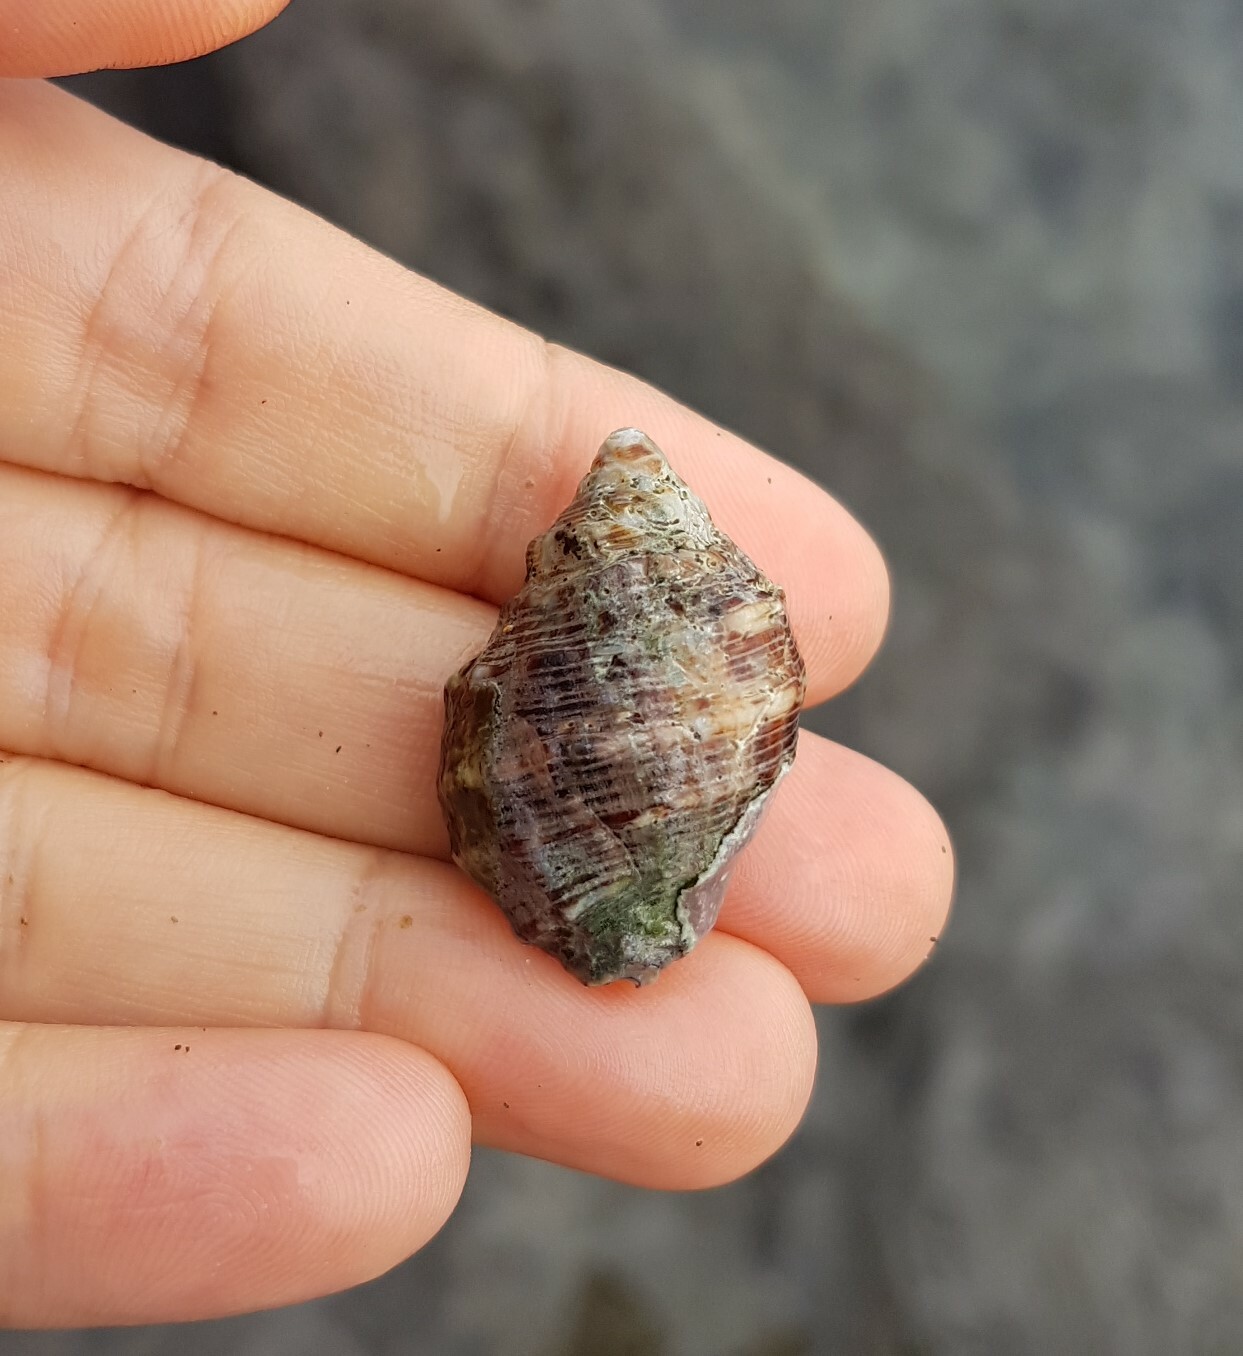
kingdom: Animalia
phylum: Mollusca
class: Gastropoda
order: Neogastropoda
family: Muricidae
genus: Stramonita
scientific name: Stramonita haemastoma
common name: Florida dog winkle
